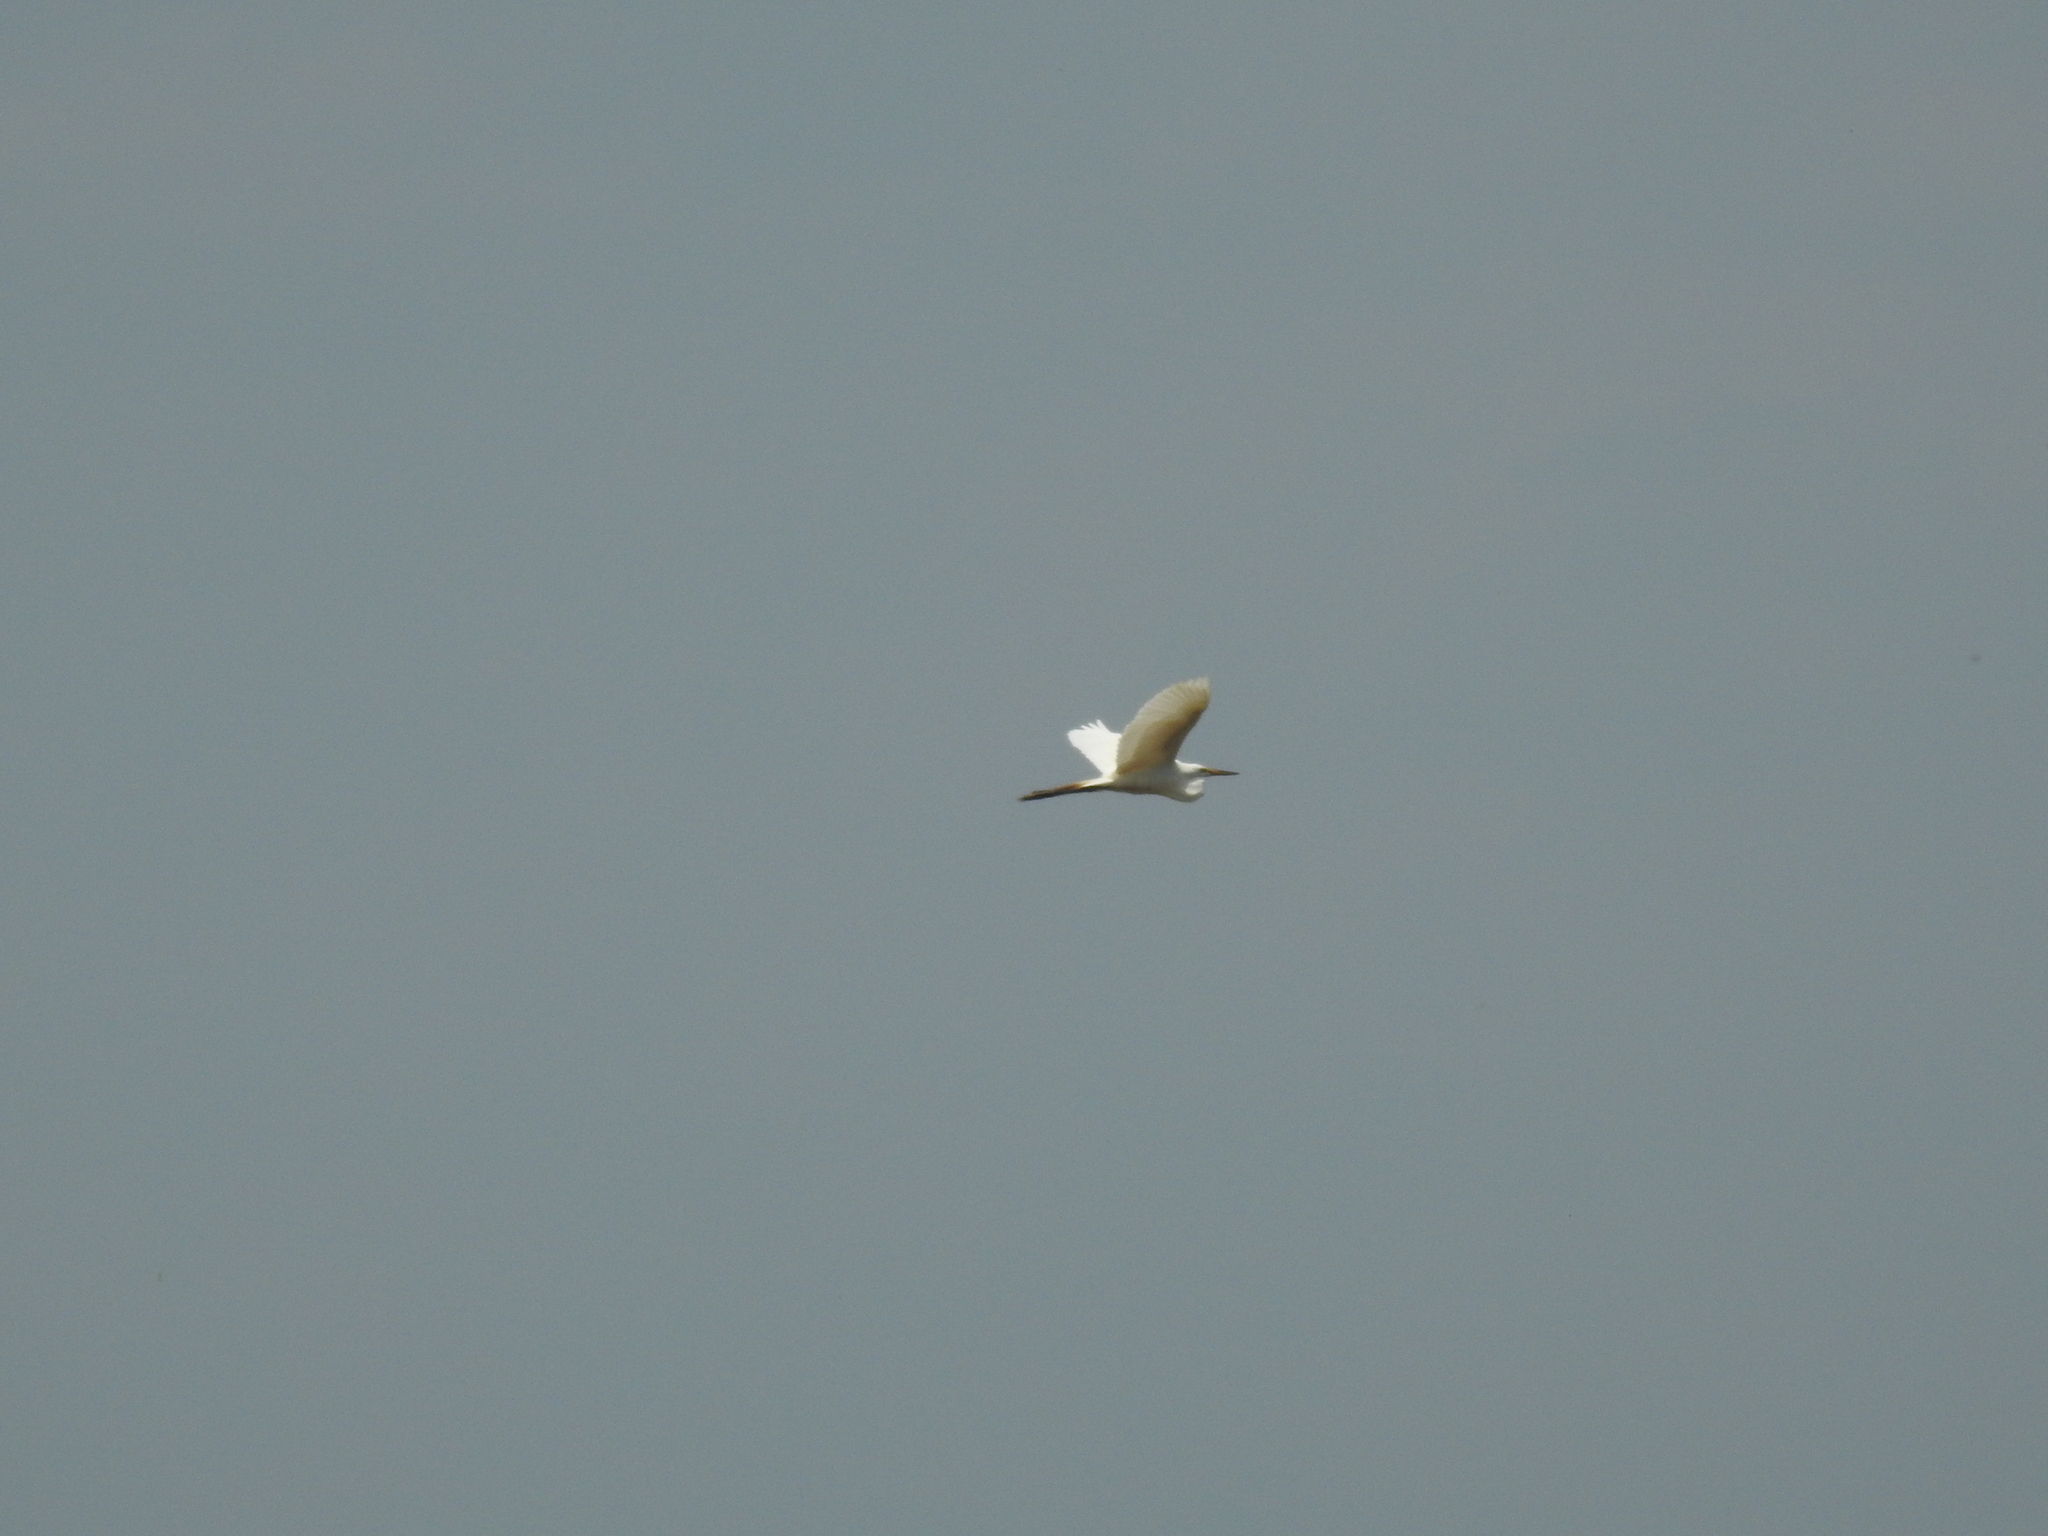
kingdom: Animalia
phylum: Chordata
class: Aves
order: Pelecaniformes
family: Ardeidae
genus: Ardea
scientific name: Ardea alba
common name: Great egret
